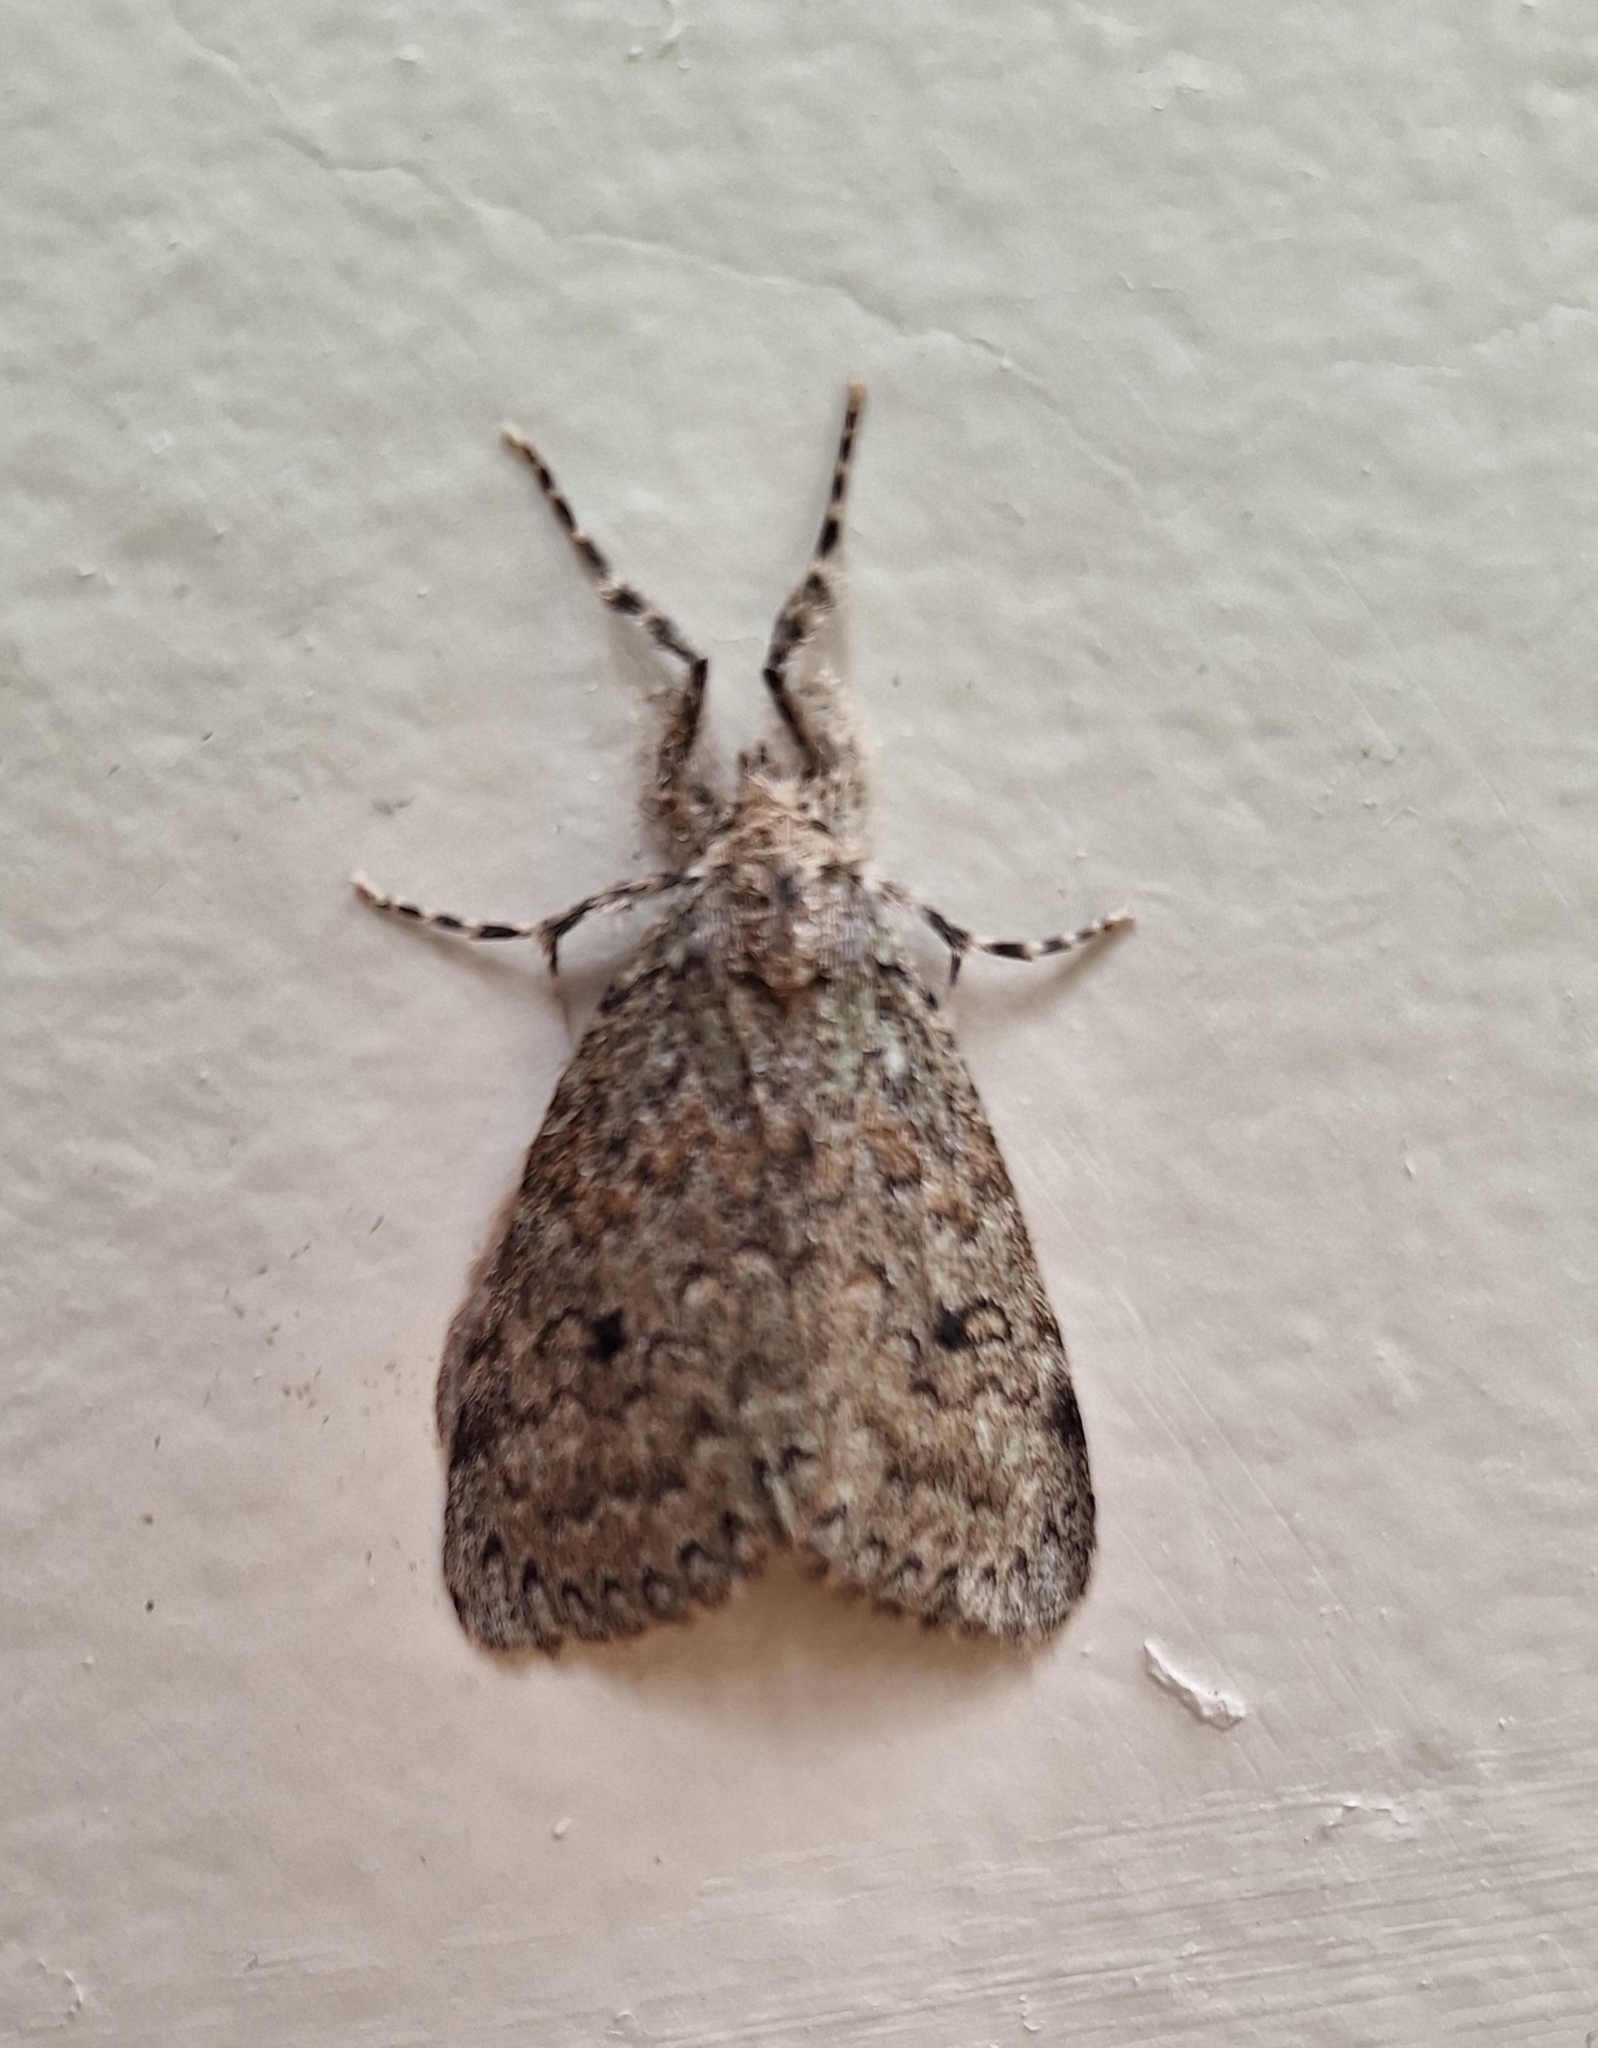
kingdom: Animalia
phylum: Arthropoda
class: Insecta
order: Lepidoptera
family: Erebidae
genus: Laelia
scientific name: Laelia fusca
